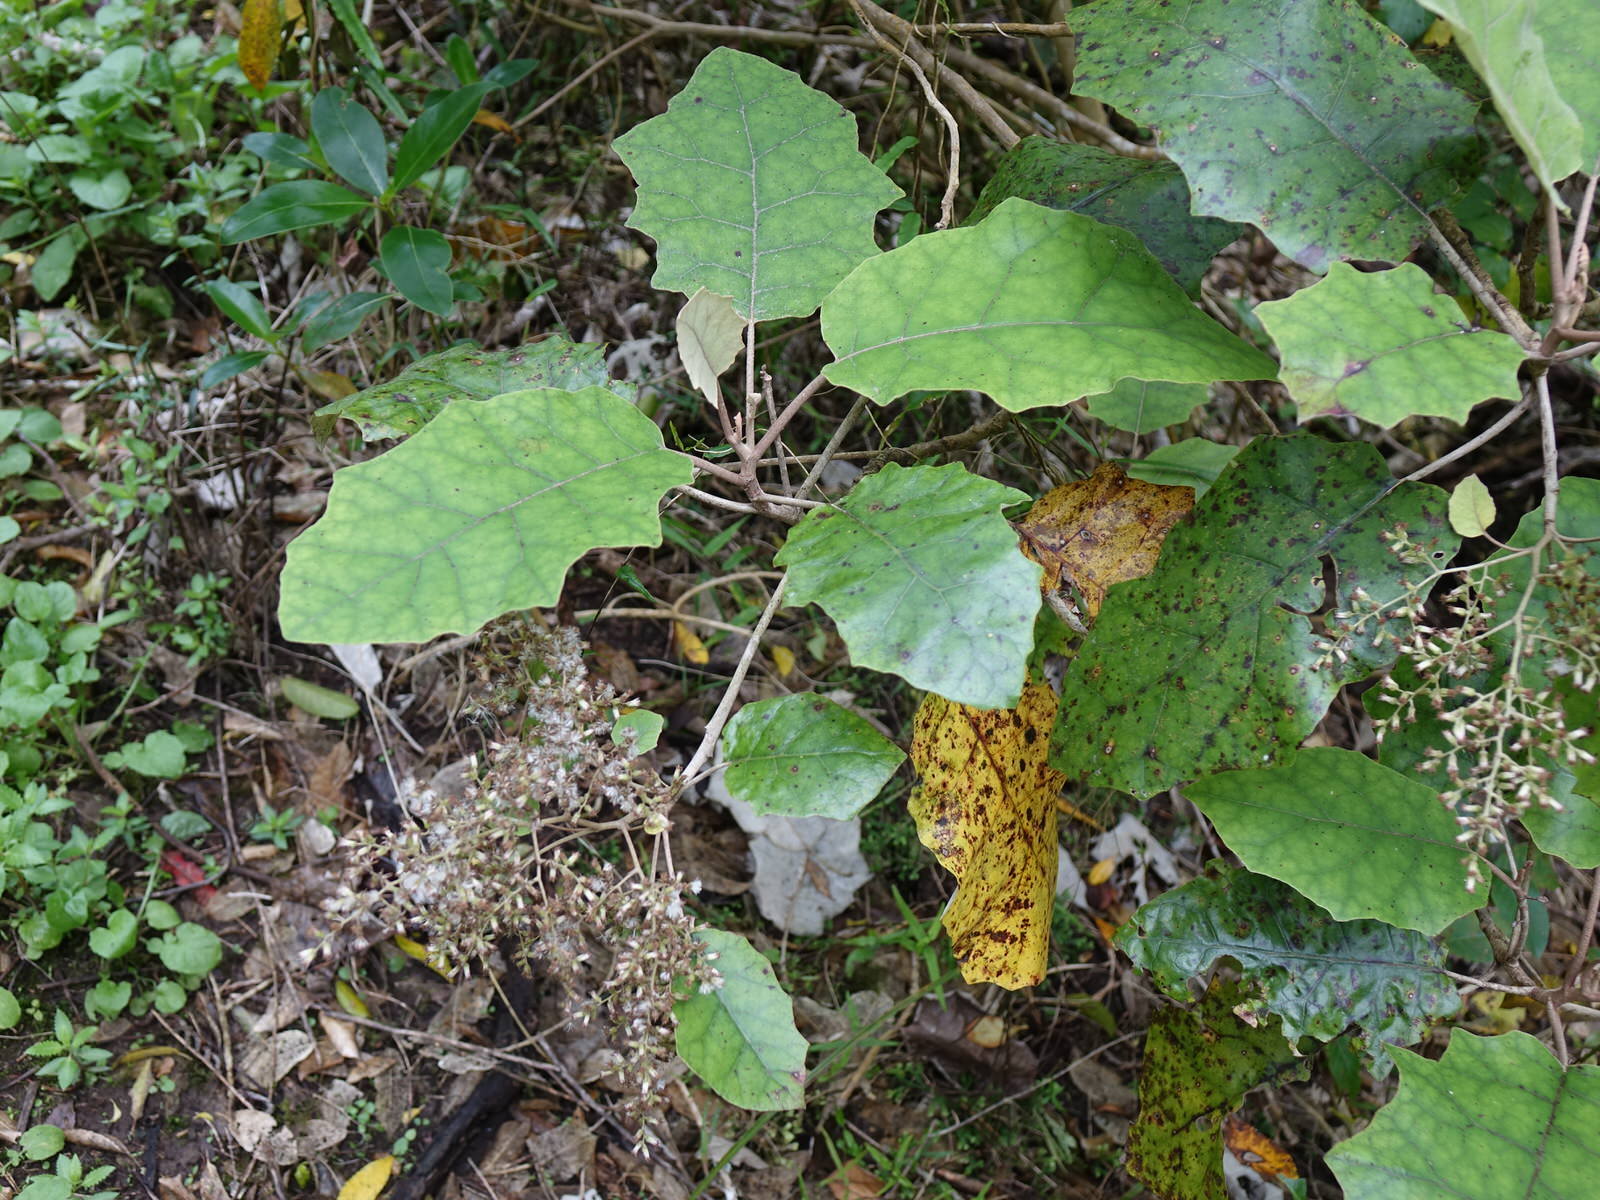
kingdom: Plantae
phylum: Tracheophyta
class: Magnoliopsida
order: Asterales
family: Asteraceae
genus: Brachyglottis
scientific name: Brachyglottis repanda
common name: Hedge ragwort
